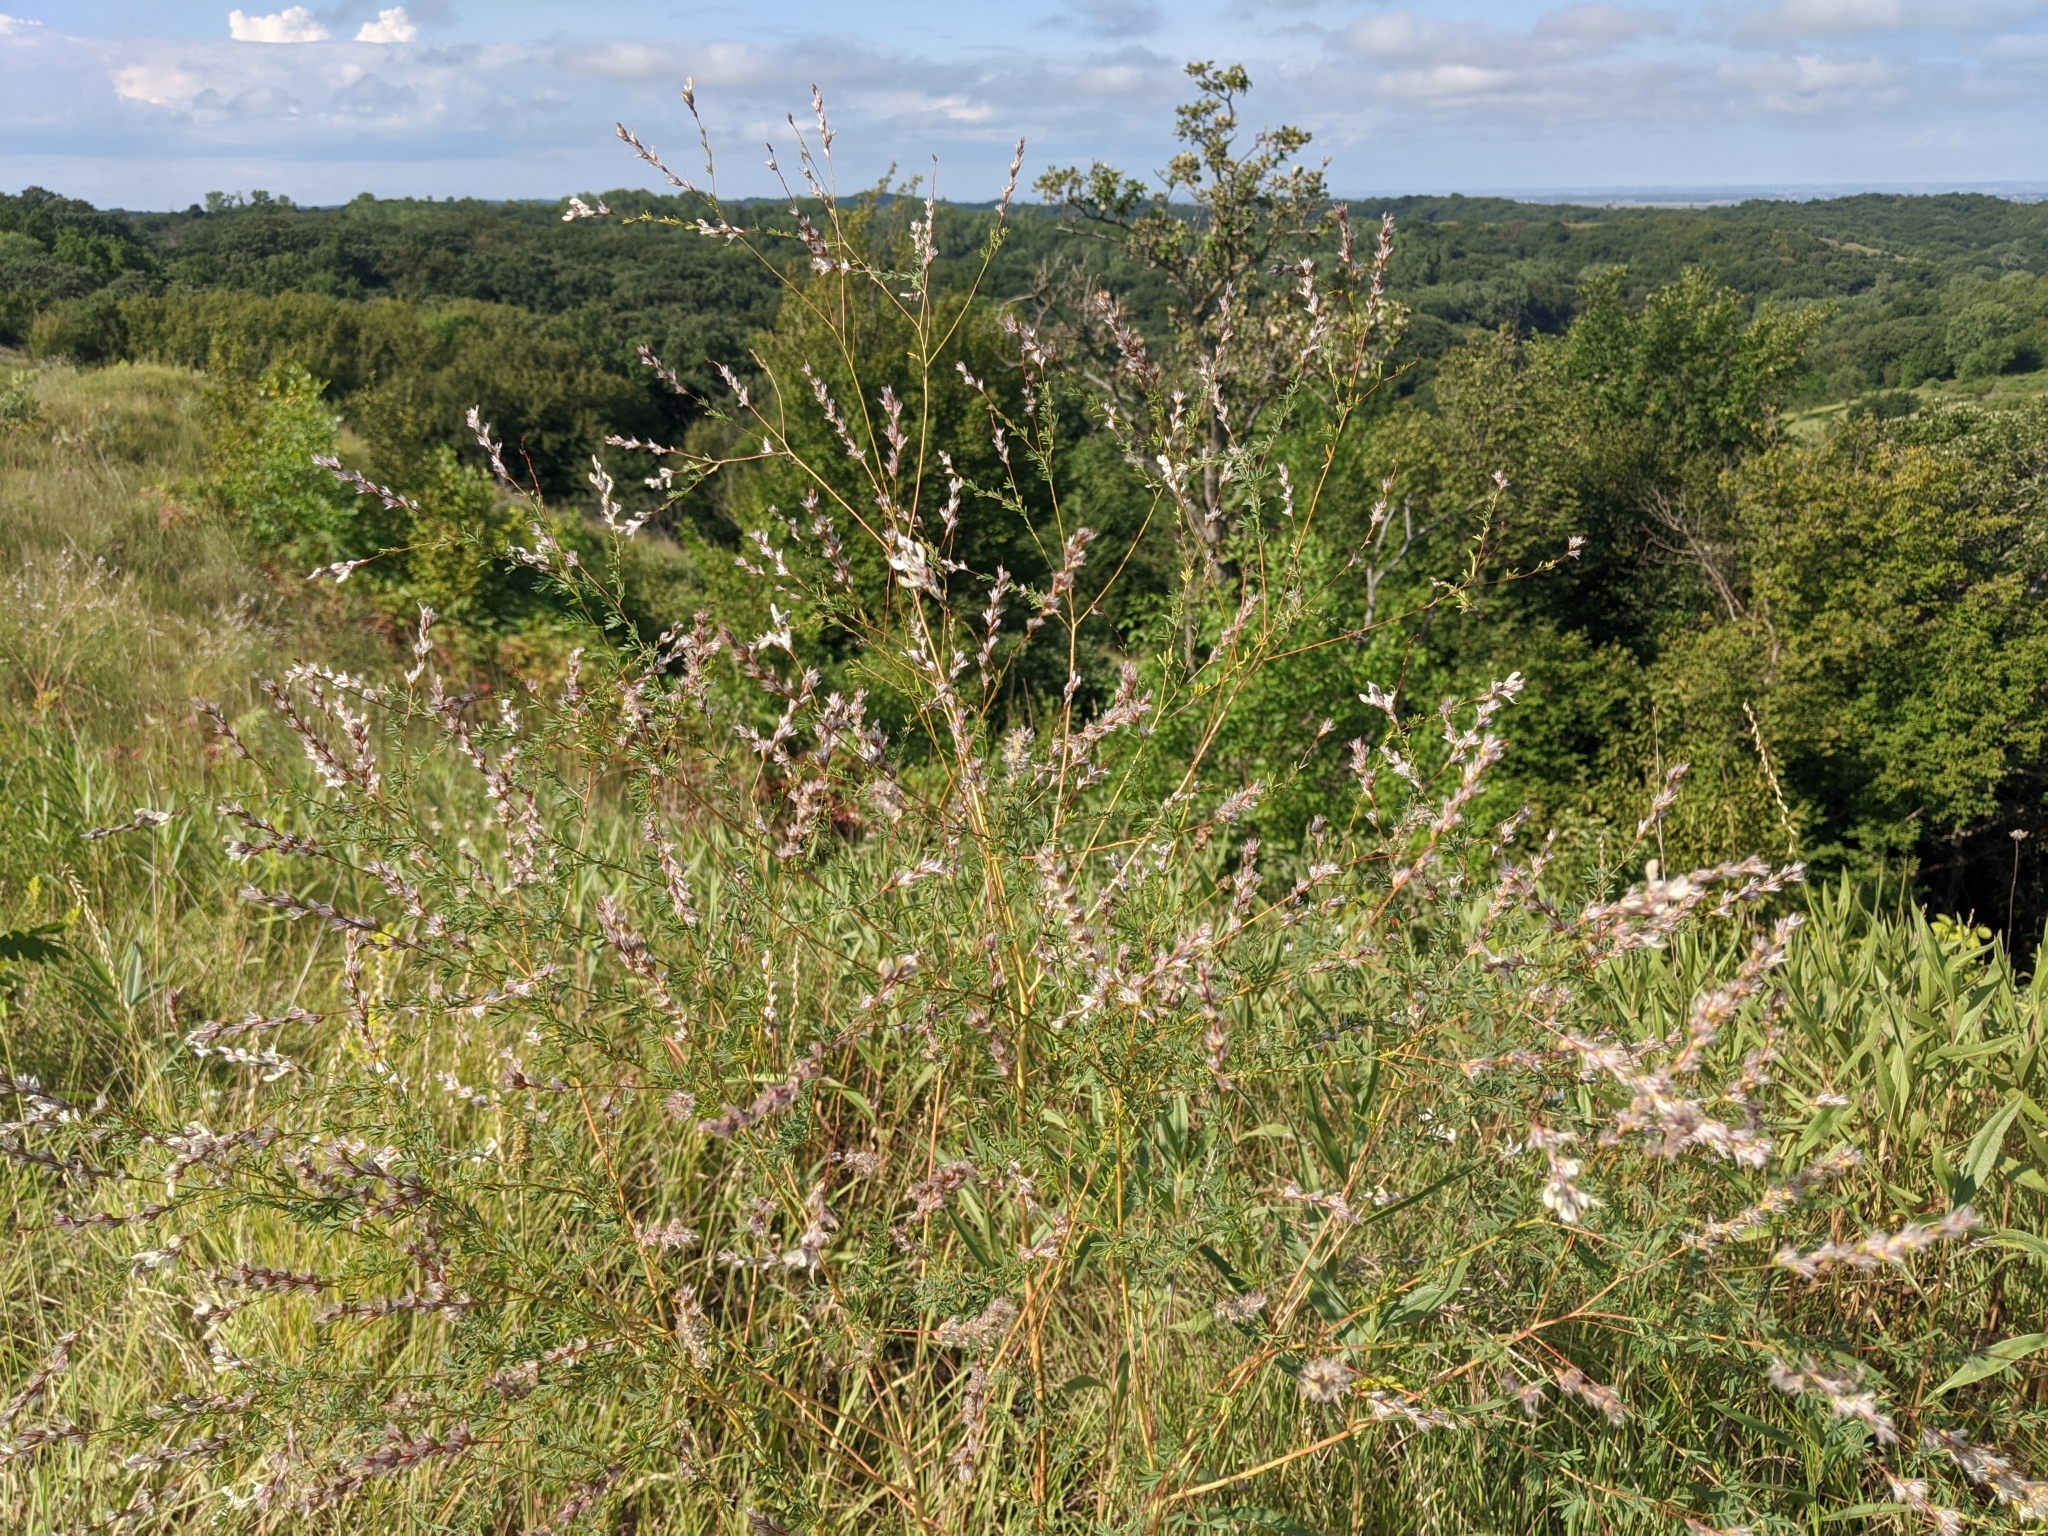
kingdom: Plantae
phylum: Tracheophyta
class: Magnoliopsida
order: Fabales
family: Fabaceae
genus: Dalea
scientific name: Dalea enneandra
